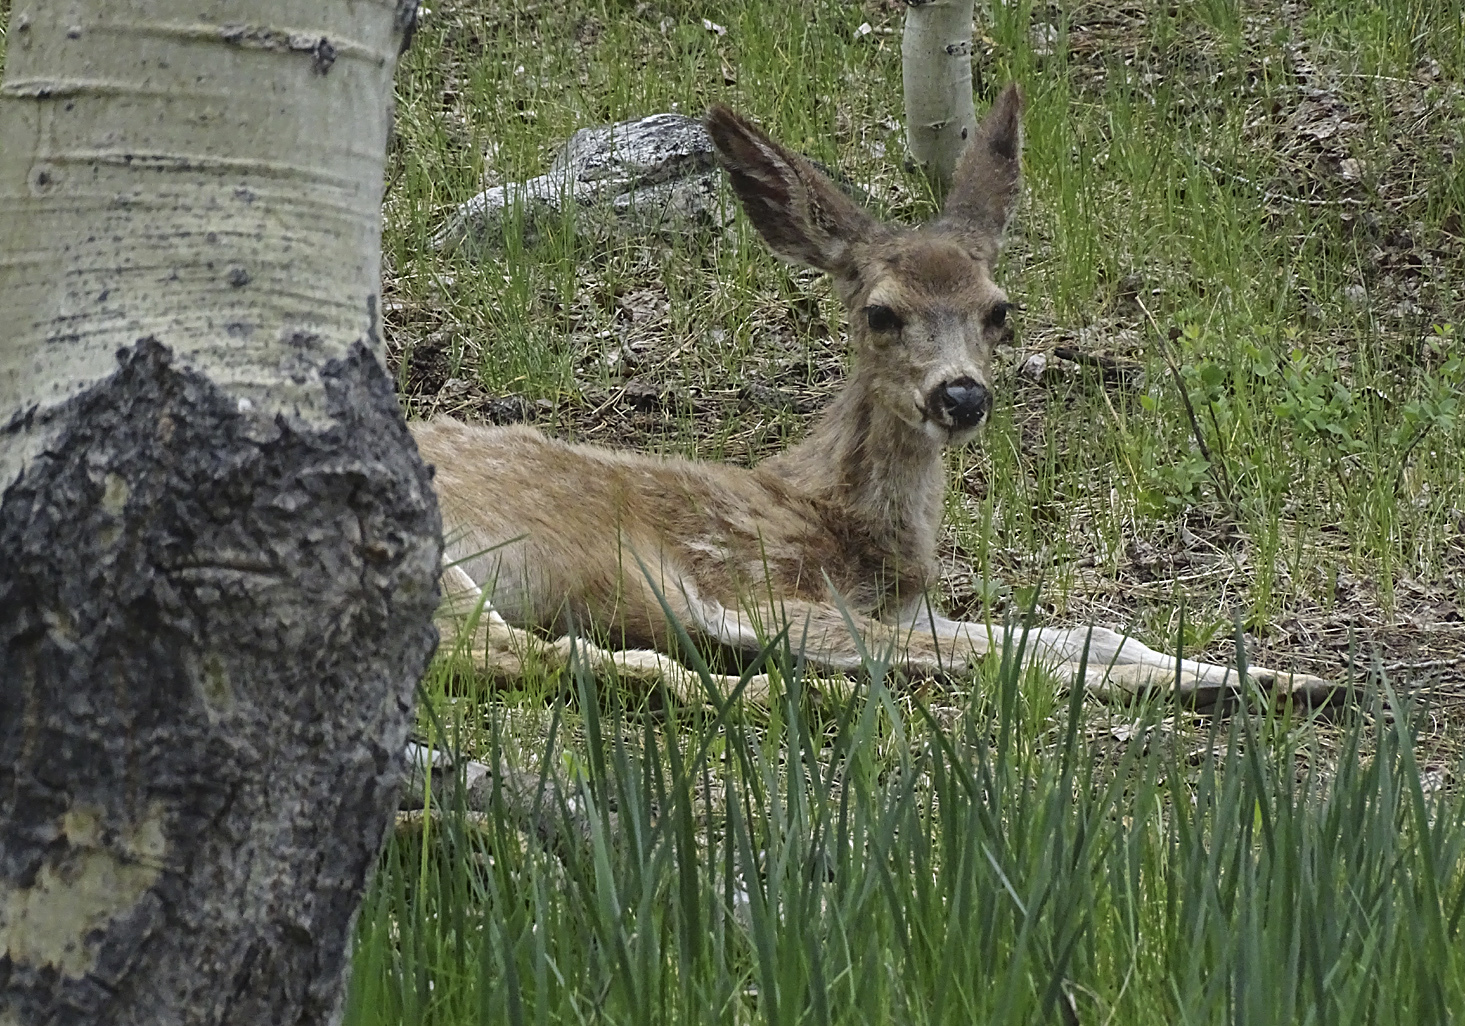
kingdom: Animalia
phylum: Chordata
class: Mammalia
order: Artiodactyla
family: Cervidae
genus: Odocoileus
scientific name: Odocoileus hemionus
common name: Mule deer
